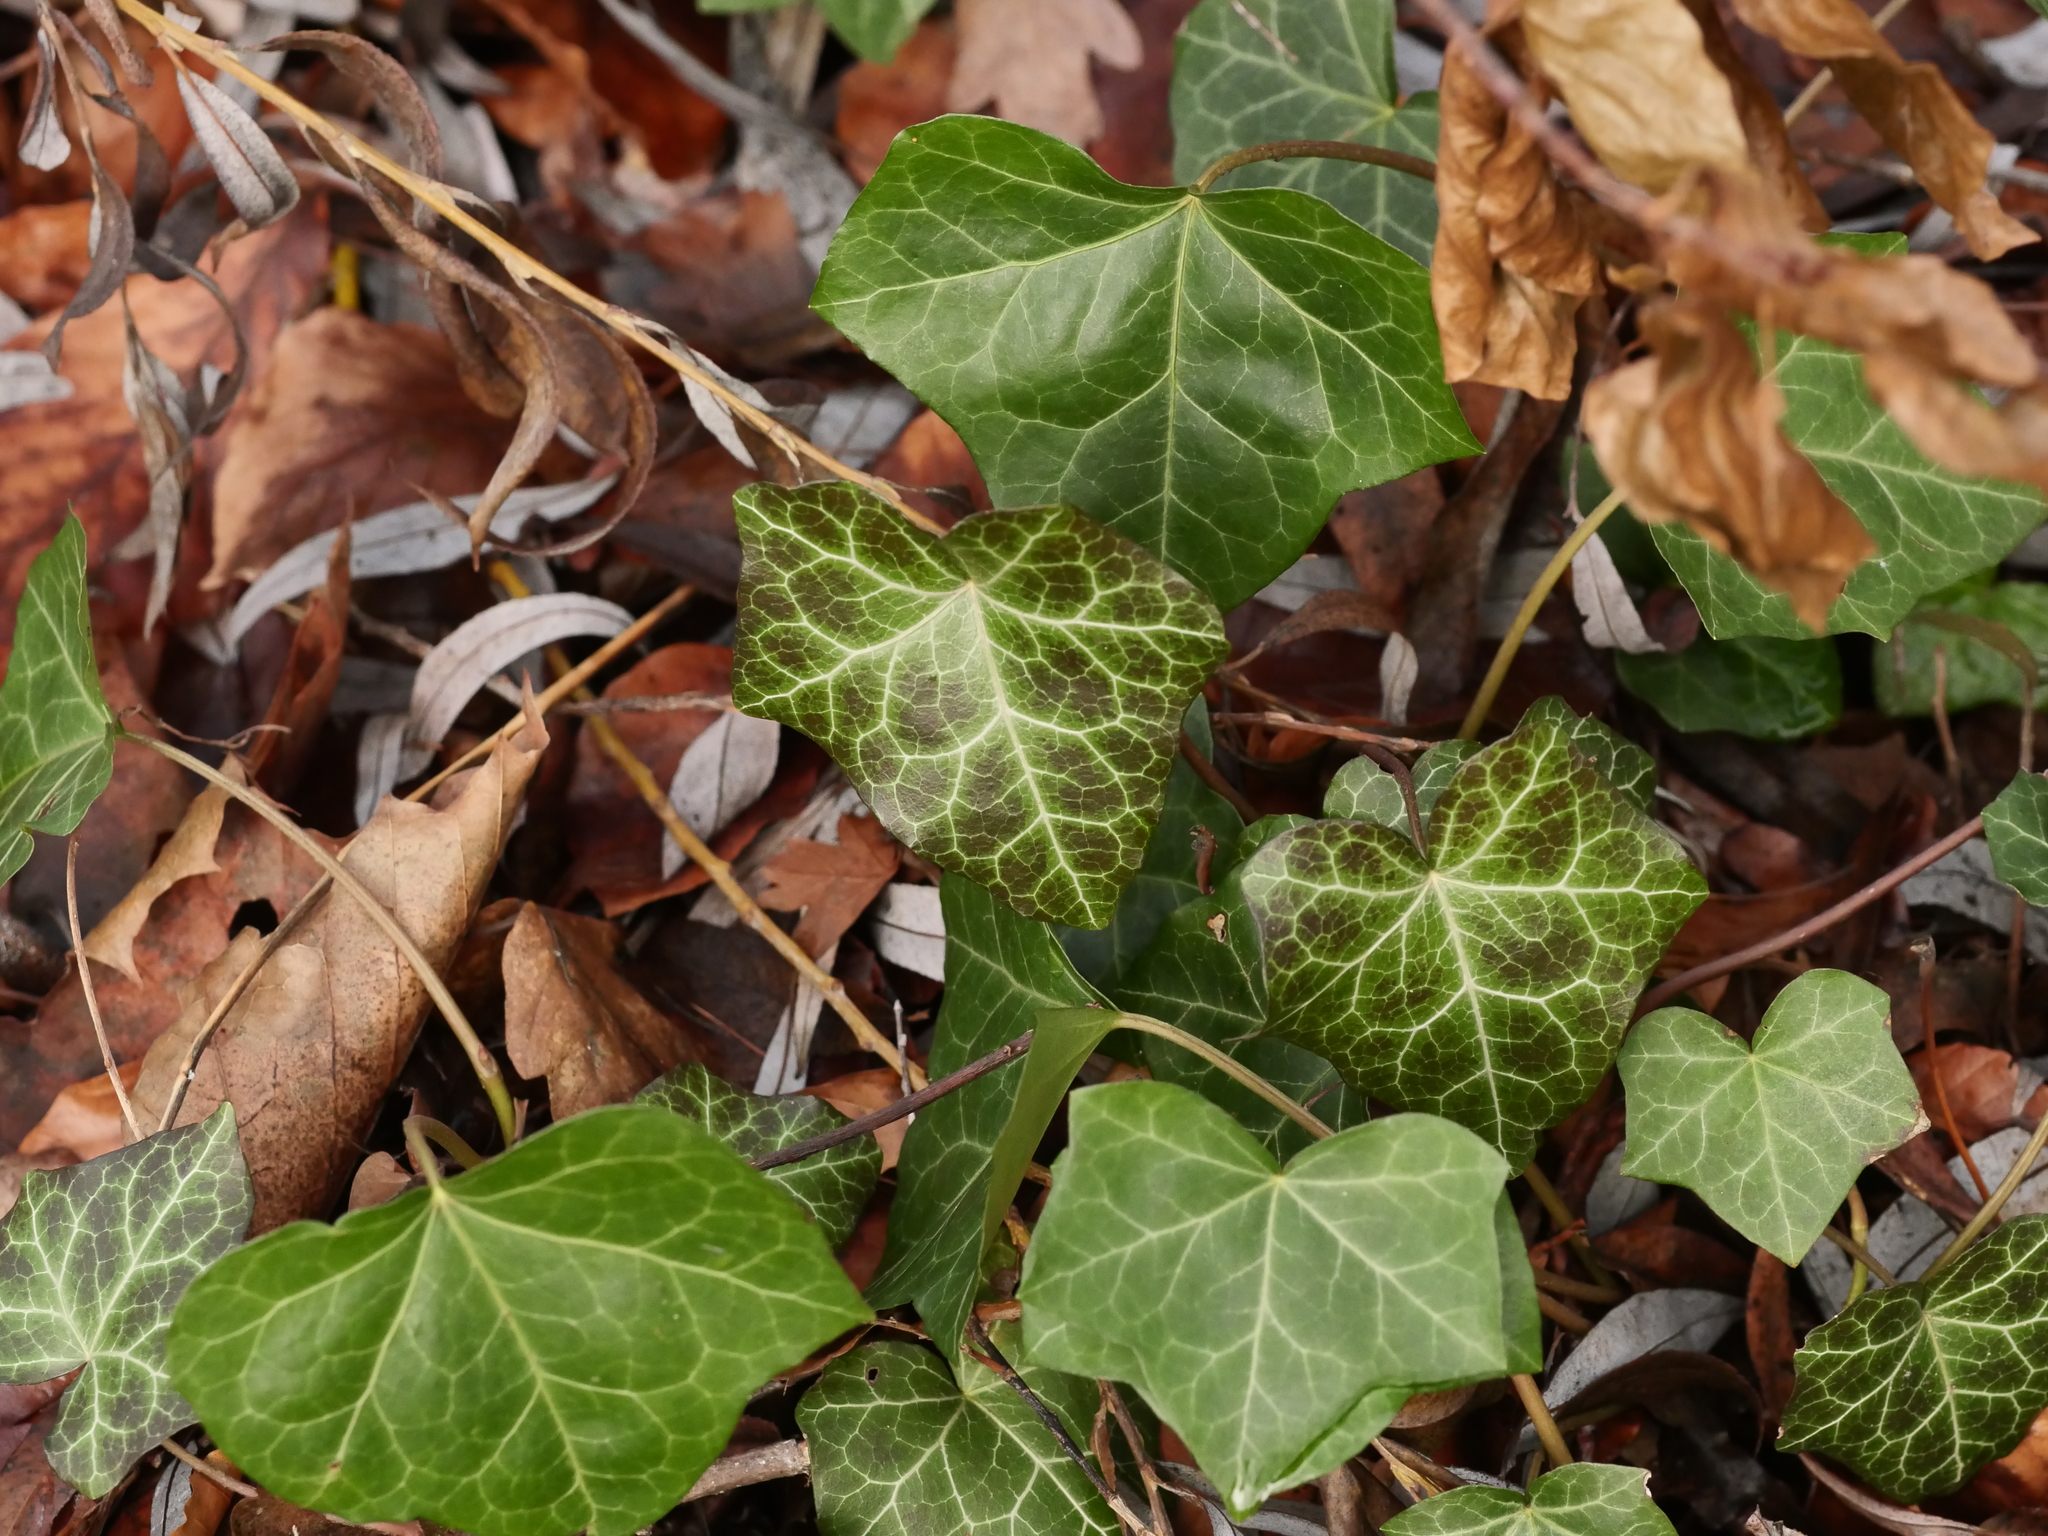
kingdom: Plantae
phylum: Tracheophyta
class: Magnoliopsida
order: Apiales
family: Araliaceae
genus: Hedera
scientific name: Hedera helix
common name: Ivy
